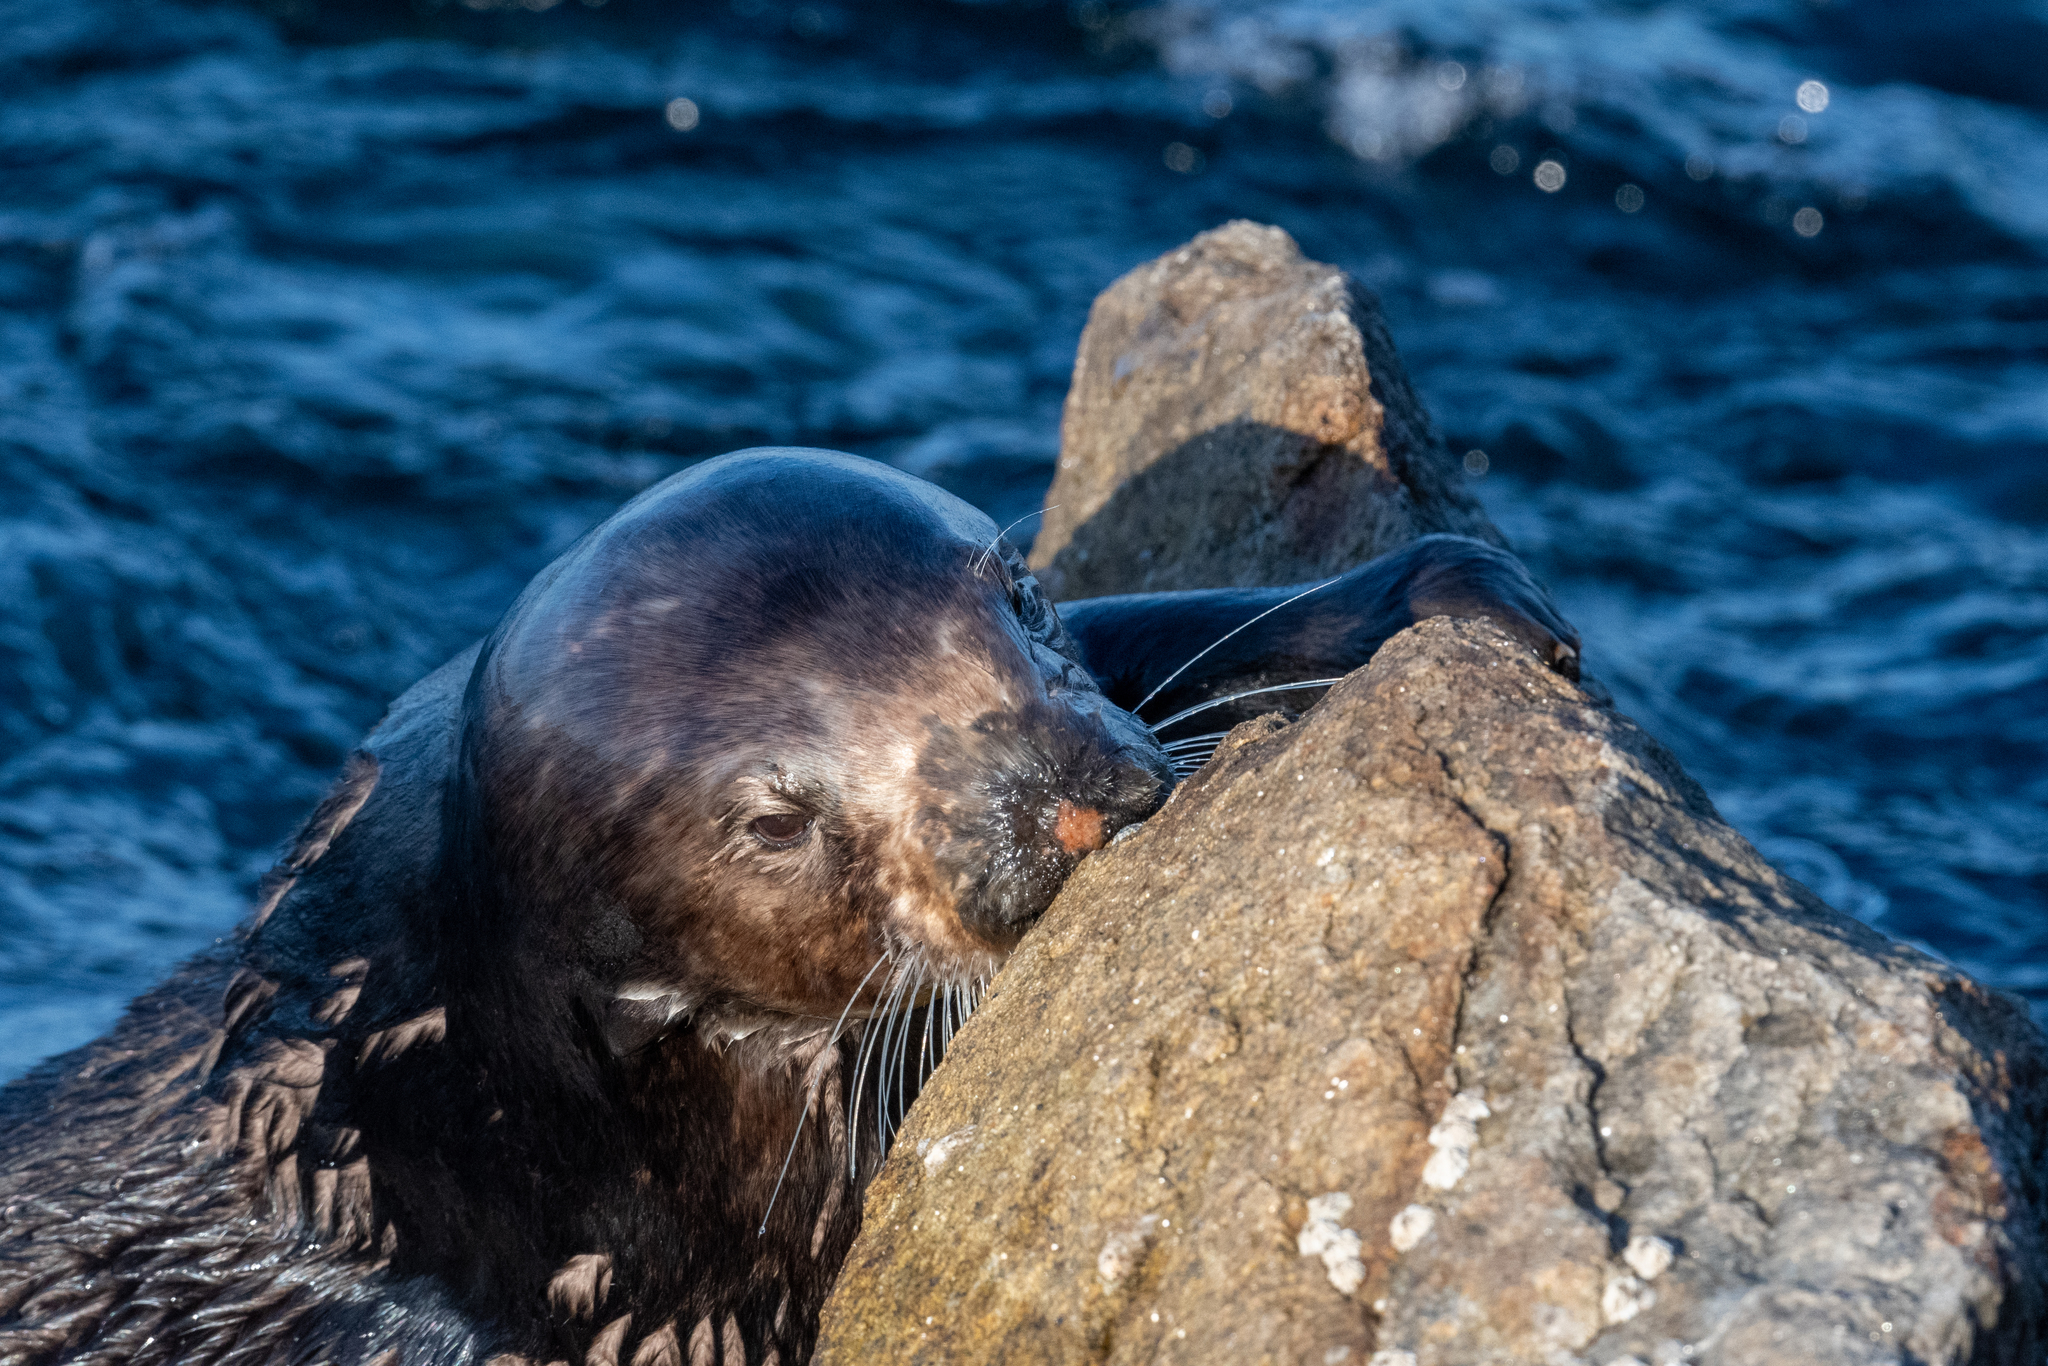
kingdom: Animalia
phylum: Chordata
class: Mammalia
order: Carnivora
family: Mustelidae
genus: Enhydra
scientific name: Enhydra lutris
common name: Sea otter
